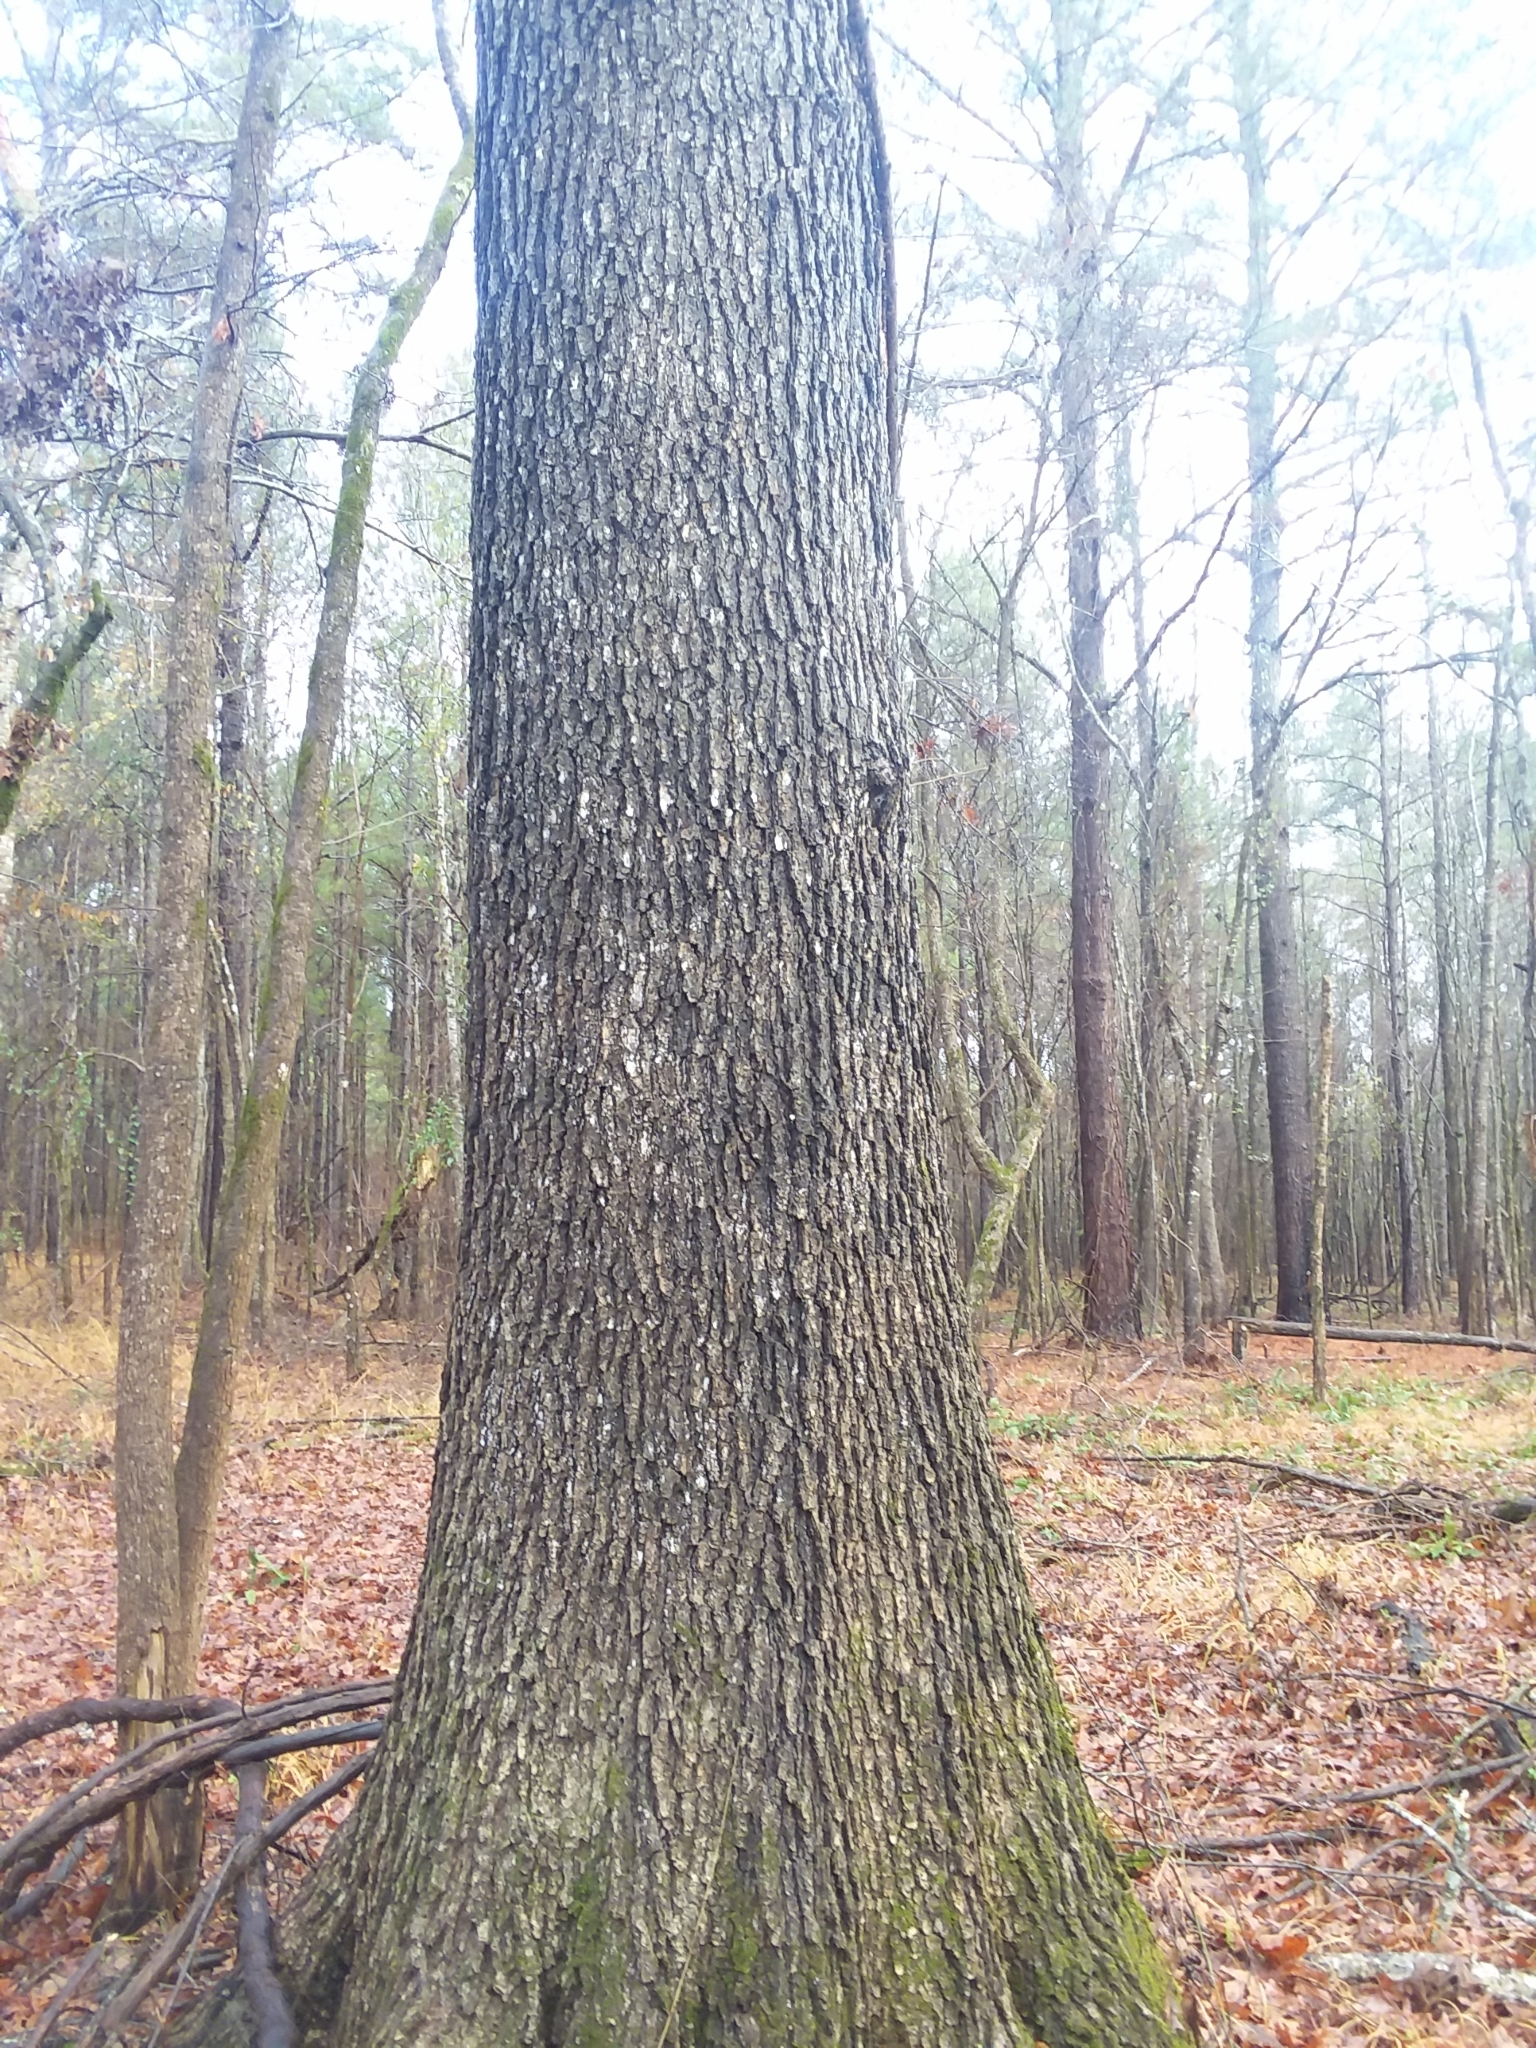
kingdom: Plantae
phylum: Tracheophyta
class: Magnoliopsida
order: Fagales
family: Fagaceae
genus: Quercus
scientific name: Quercus pagoda
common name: Cherrybark oak
